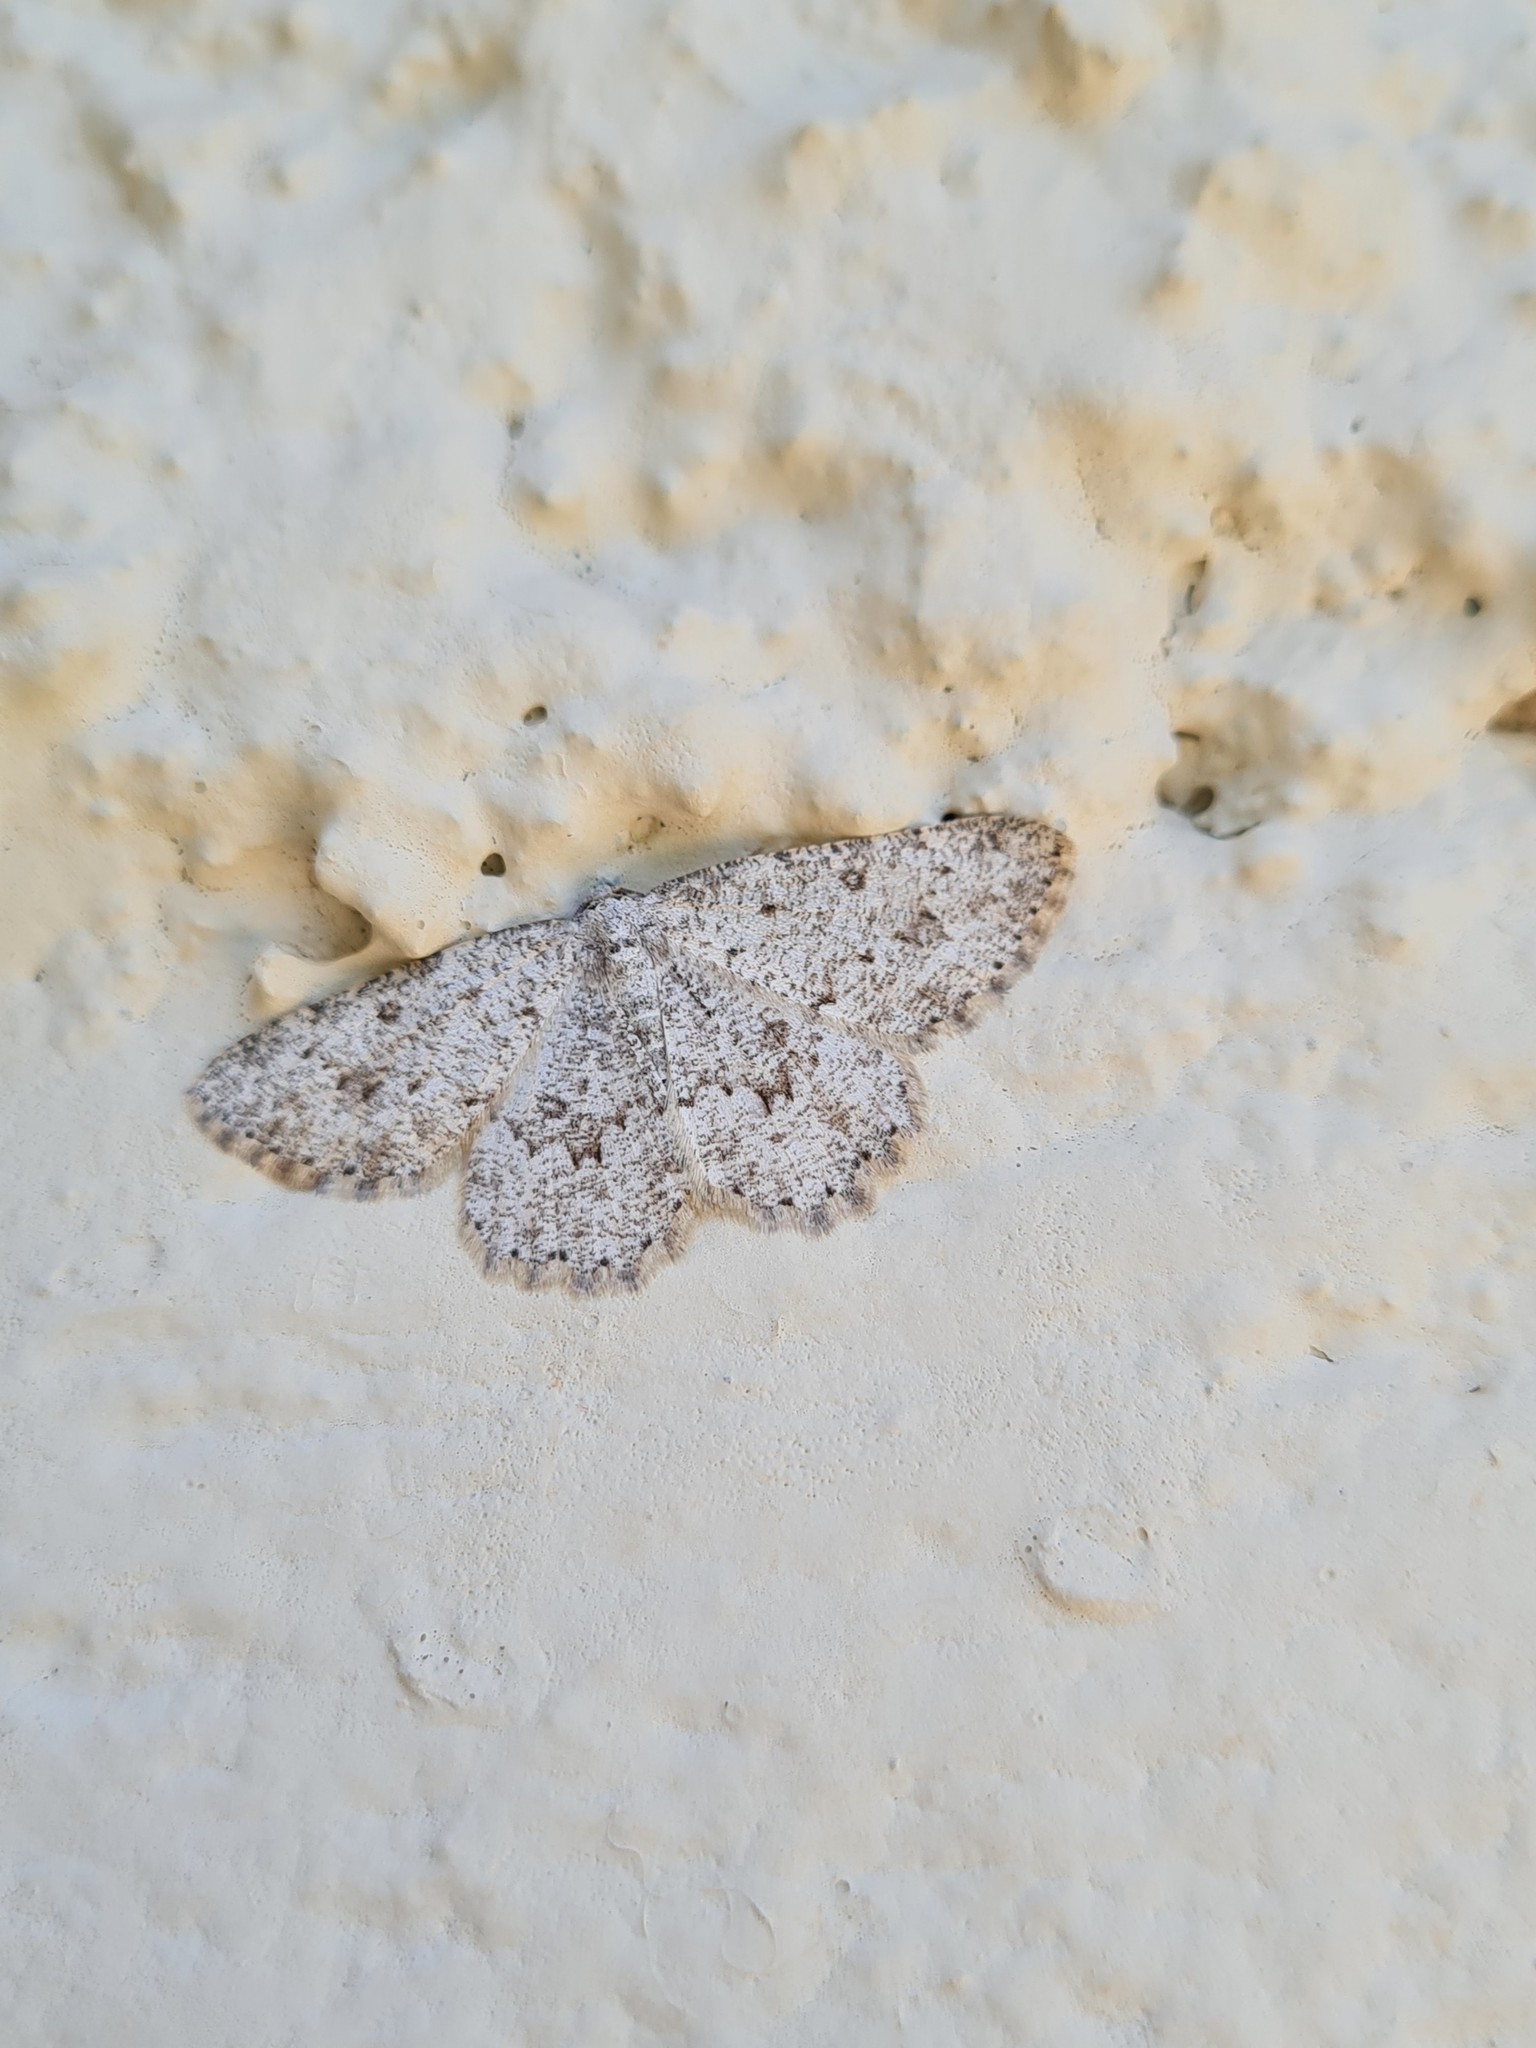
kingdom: Animalia
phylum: Arthropoda
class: Insecta
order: Lepidoptera
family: Geometridae
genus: Charissa
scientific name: Charissa onustaria
